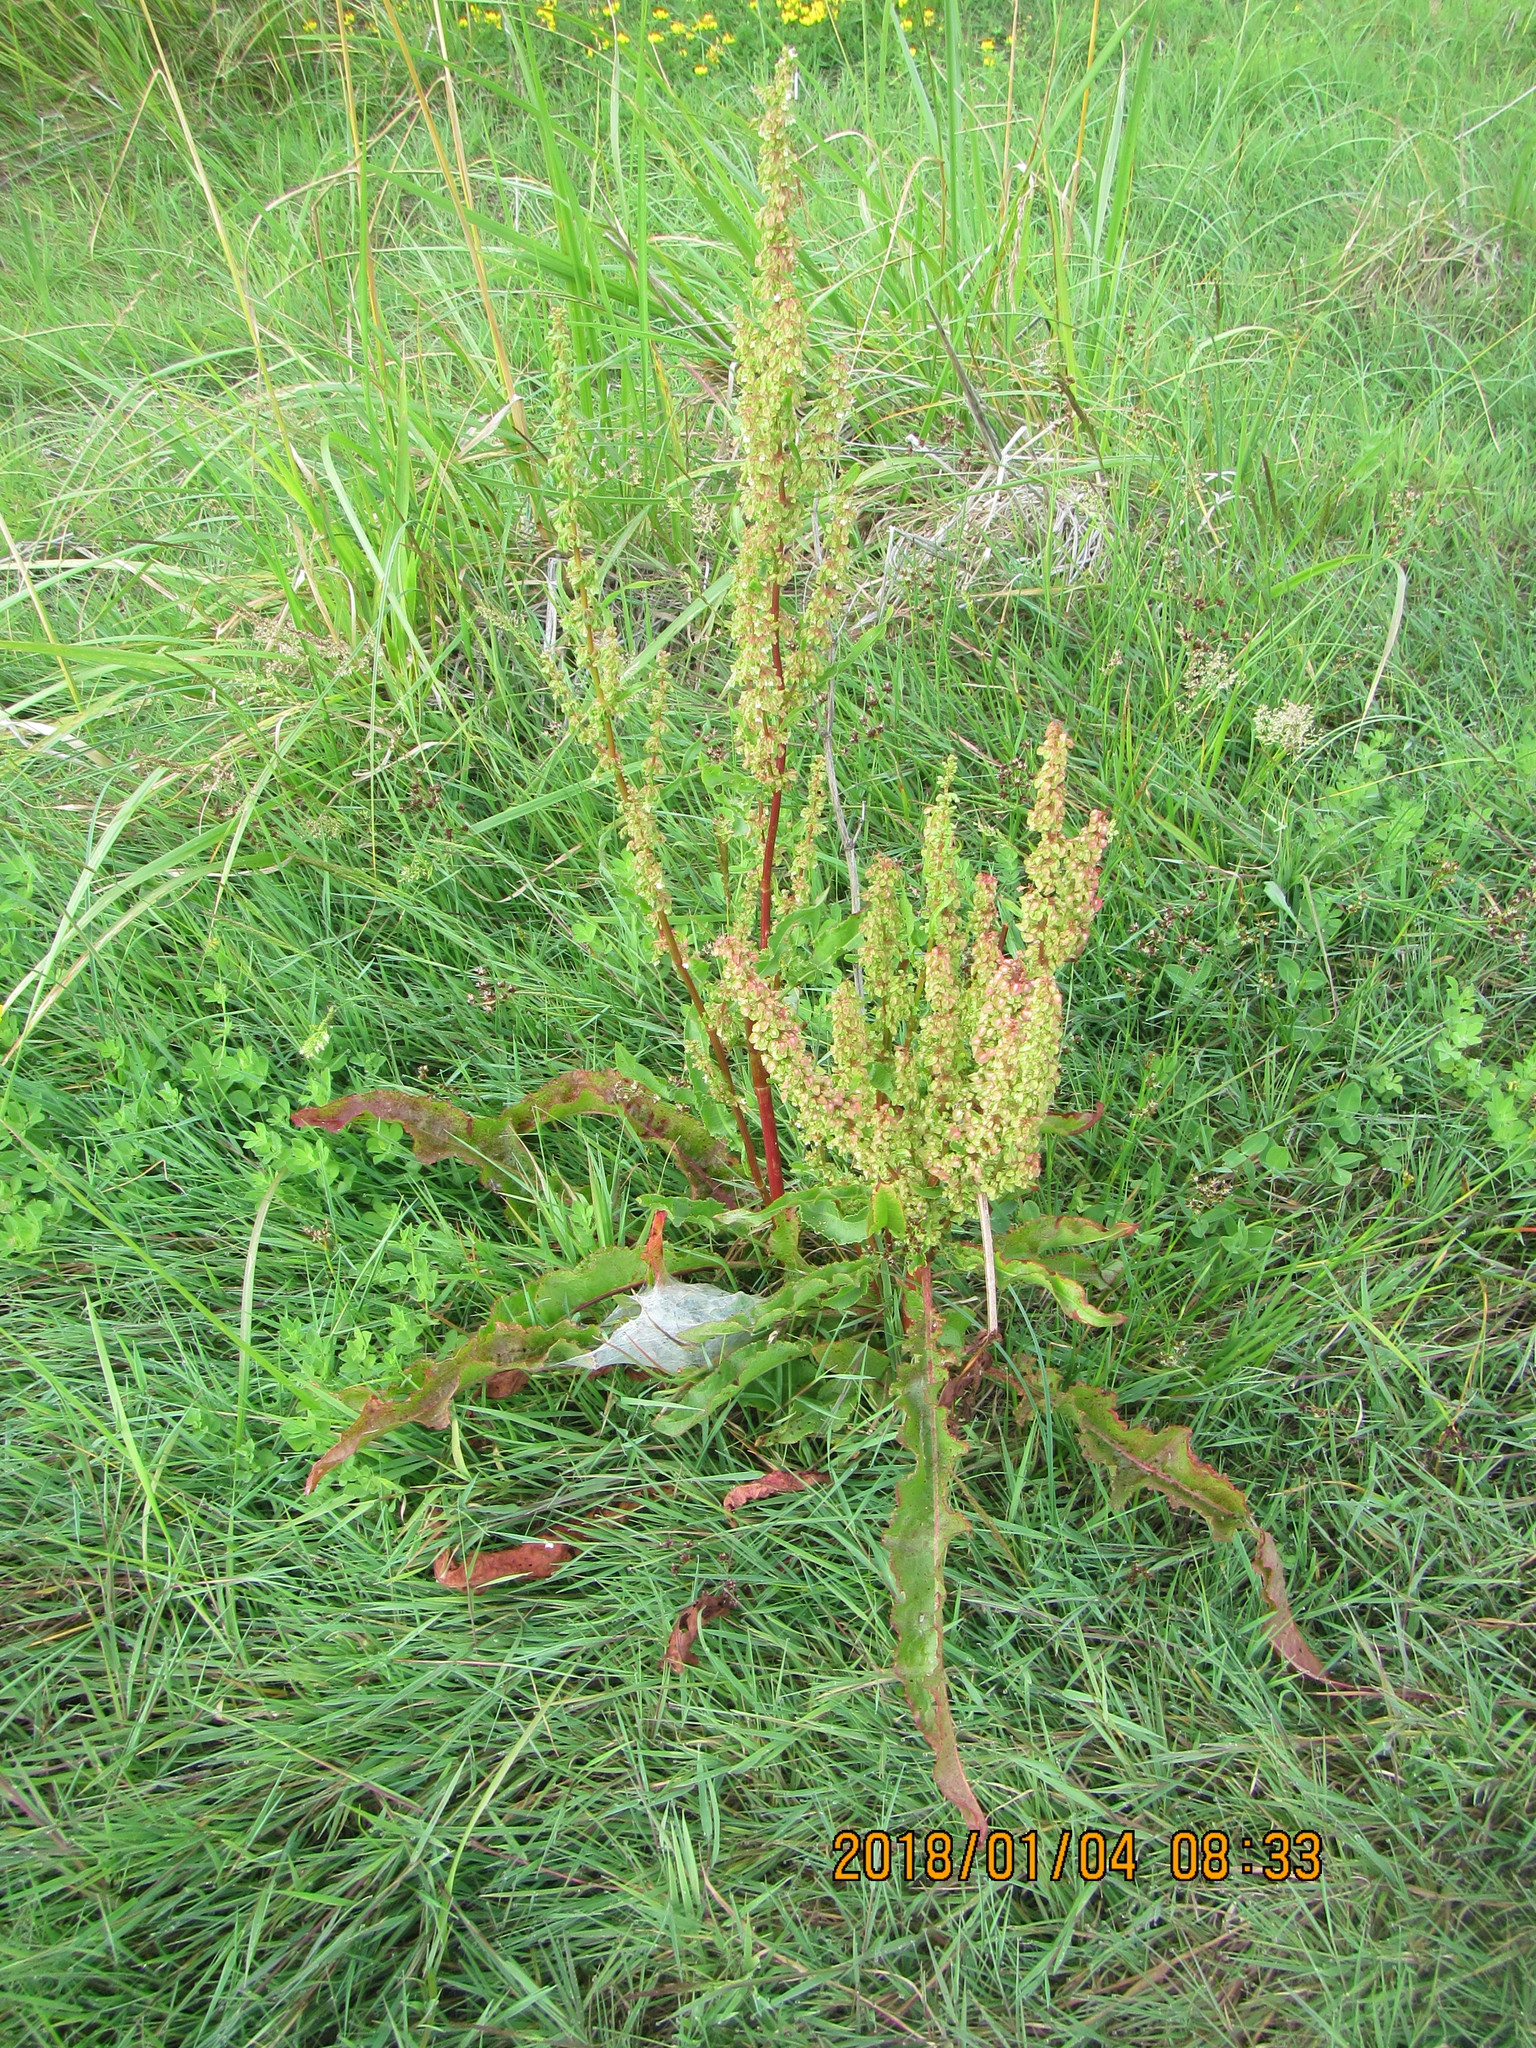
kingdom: Plantae
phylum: Tracheophyta
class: Magnoliopsida
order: Caryophyllales
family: Polygonaceae
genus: Rumex
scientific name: Rumex crispus
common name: Curled dock
